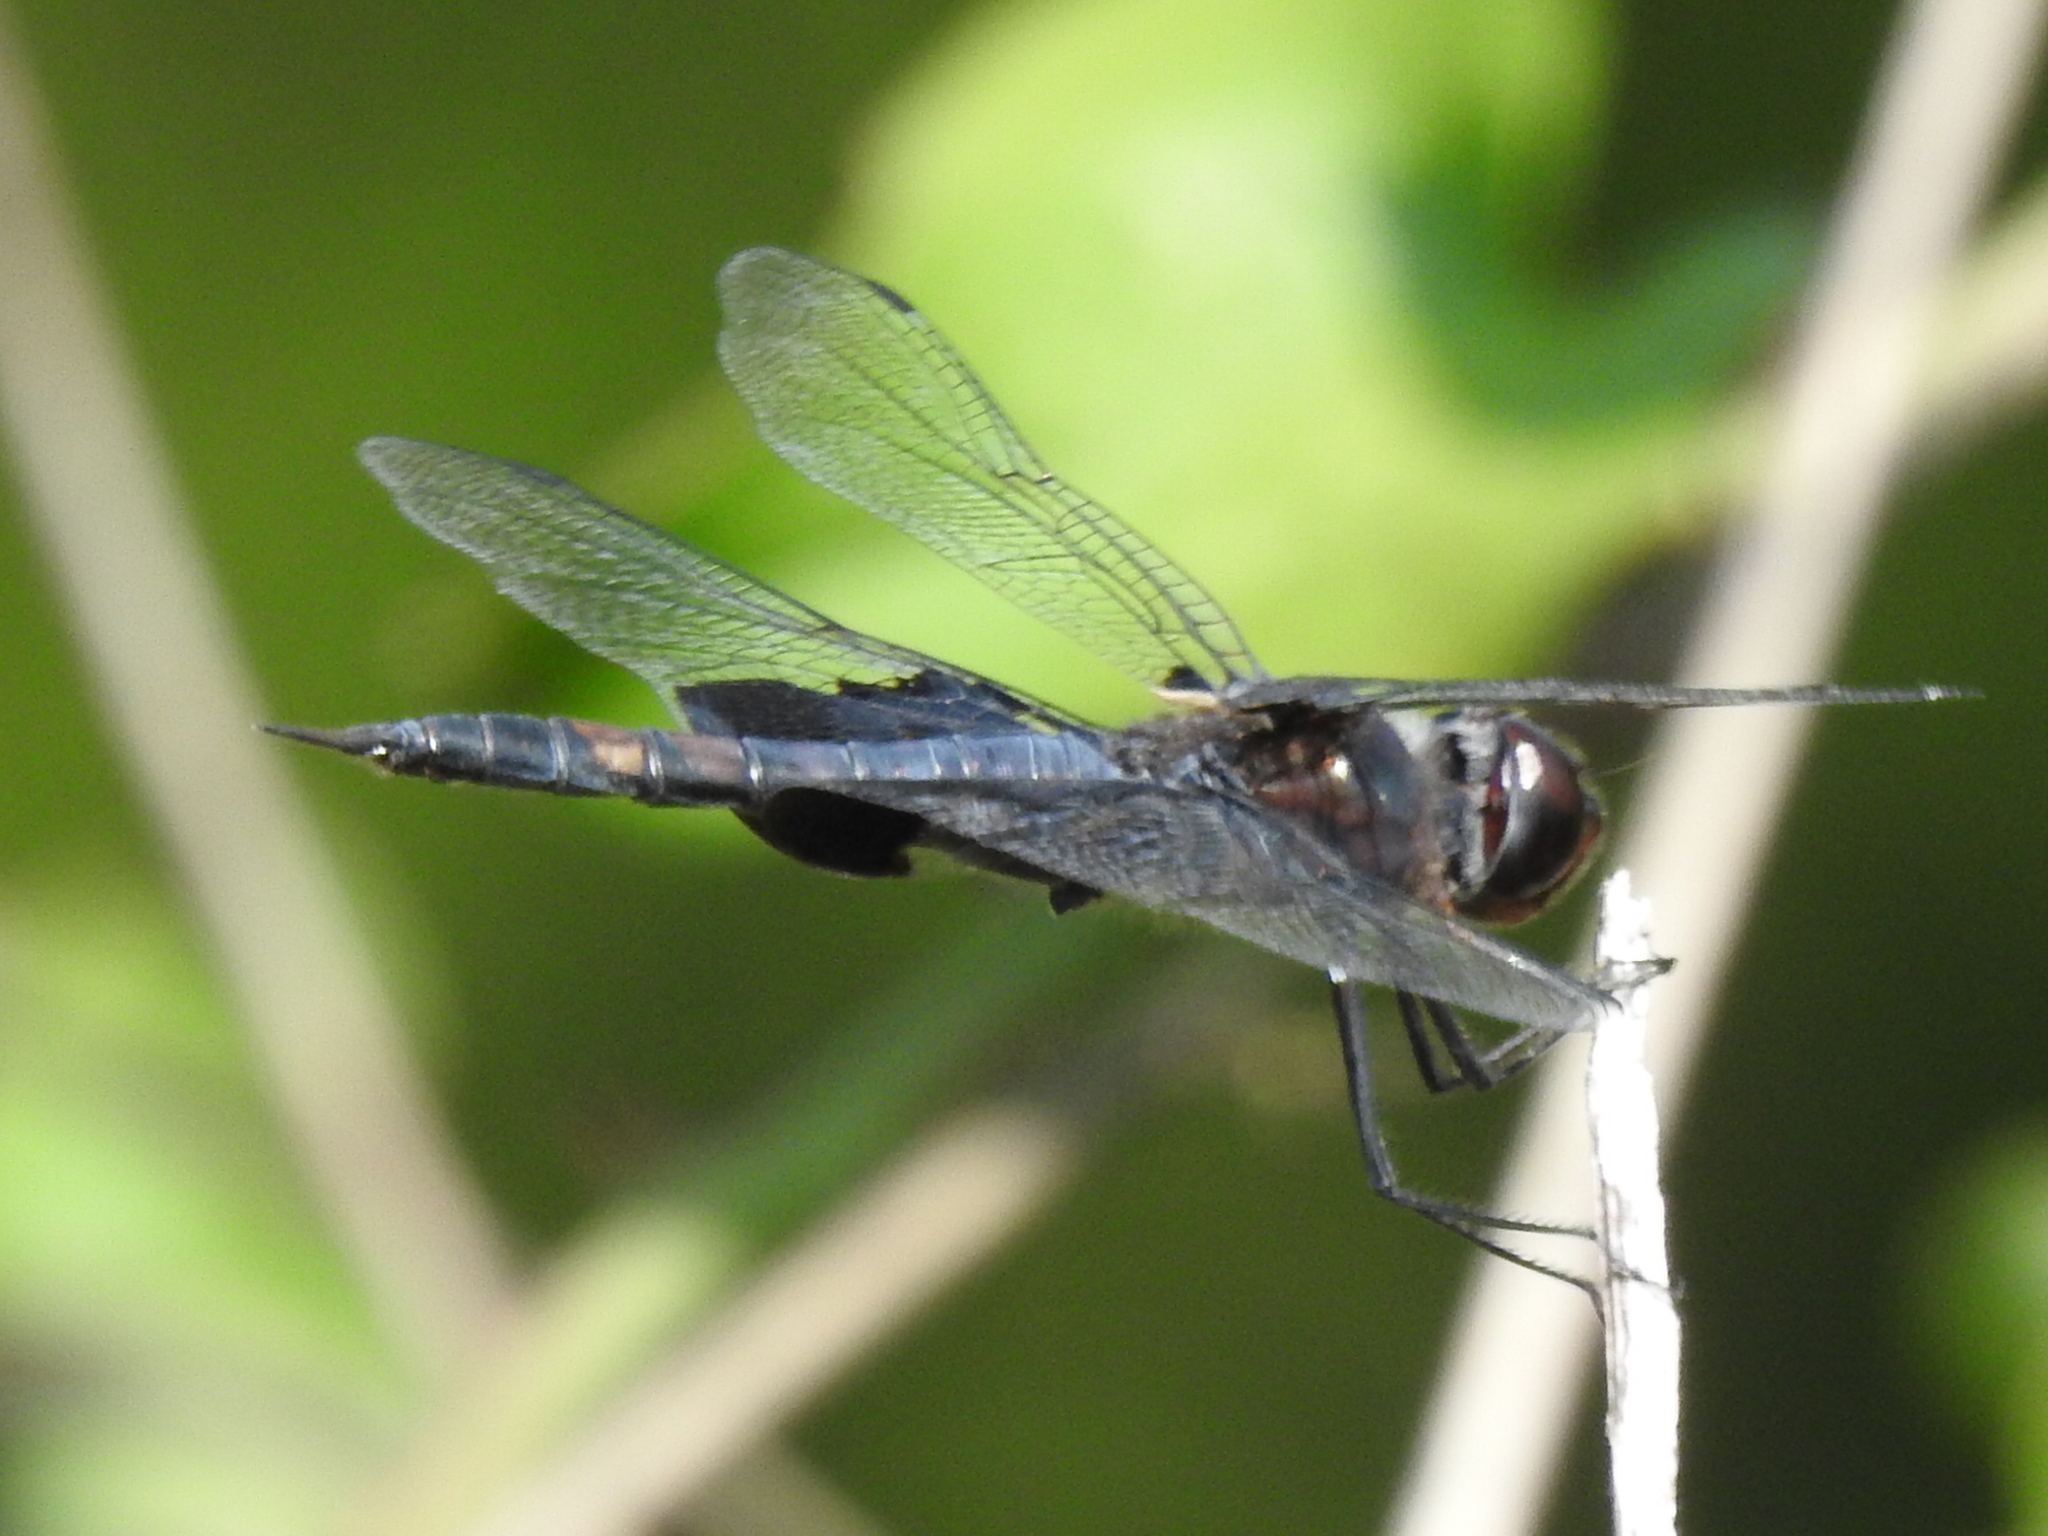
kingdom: Animalia
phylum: Arthropoda
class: Insecta
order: Odonata
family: Libellulidae
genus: Tramea
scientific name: Tramea lacerata
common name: Black saddlebags
